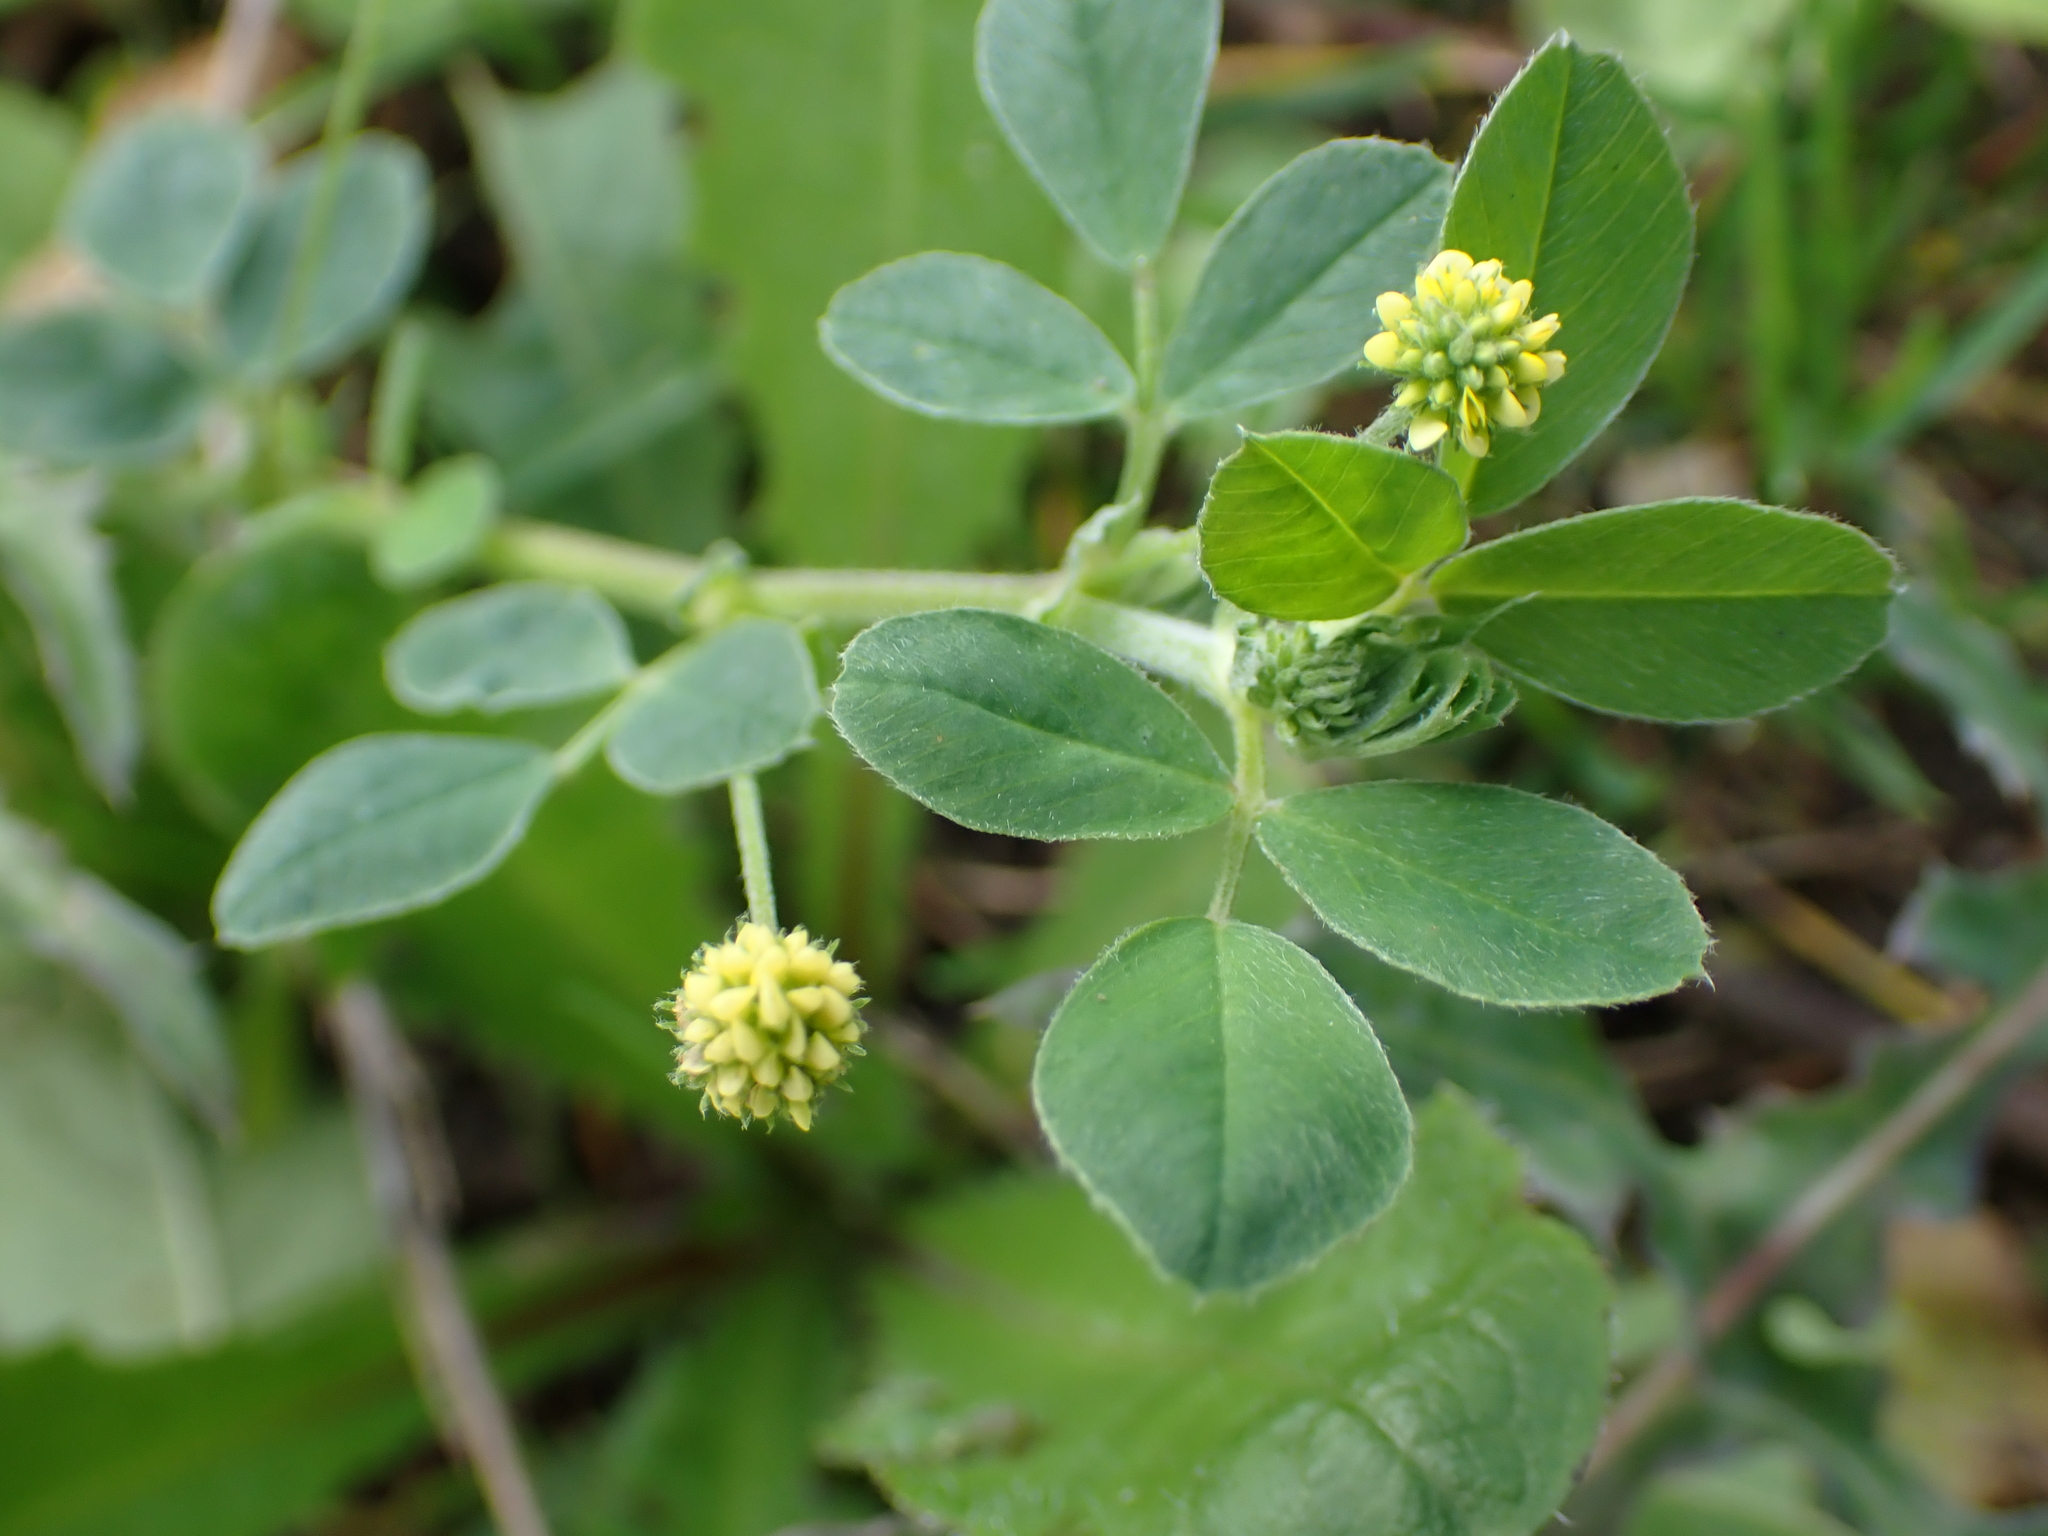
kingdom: Plantae
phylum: Tracheophyta
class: Magnoliopsida
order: Fabales
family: Fabaceae
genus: Medicago
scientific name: Medicago lupulina
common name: Black medick
